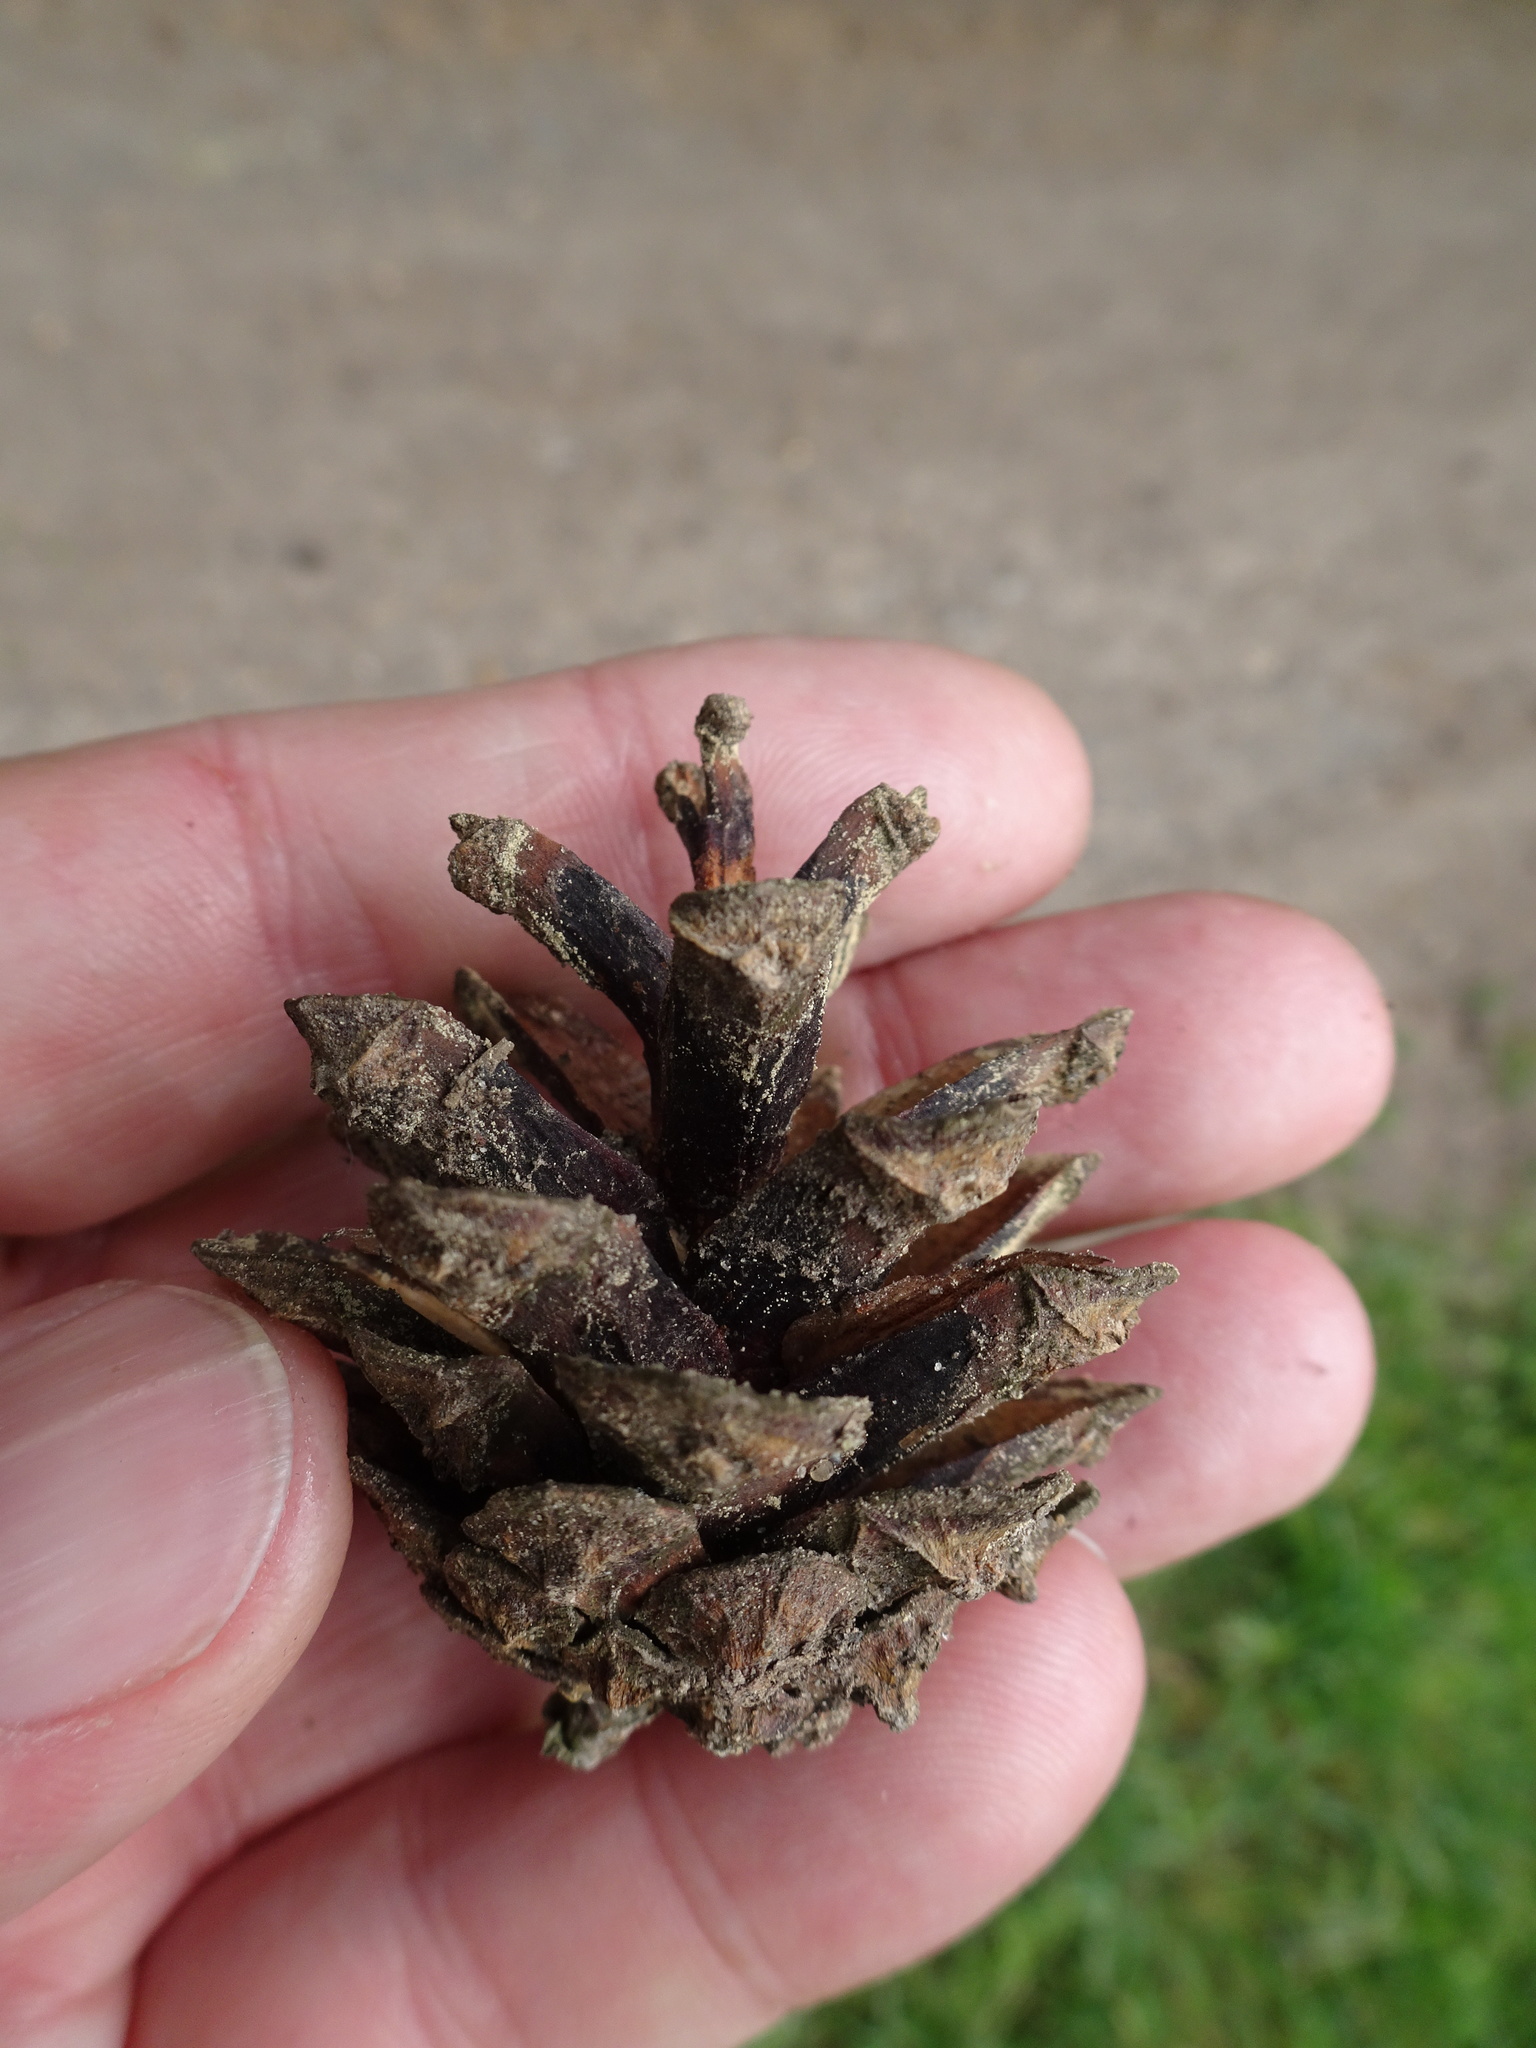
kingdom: Plantae
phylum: Tracheophyta
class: Pinopsida
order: Pinales
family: Pinaceae
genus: Pinus
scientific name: Pinus sylvestris
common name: Scots pine
